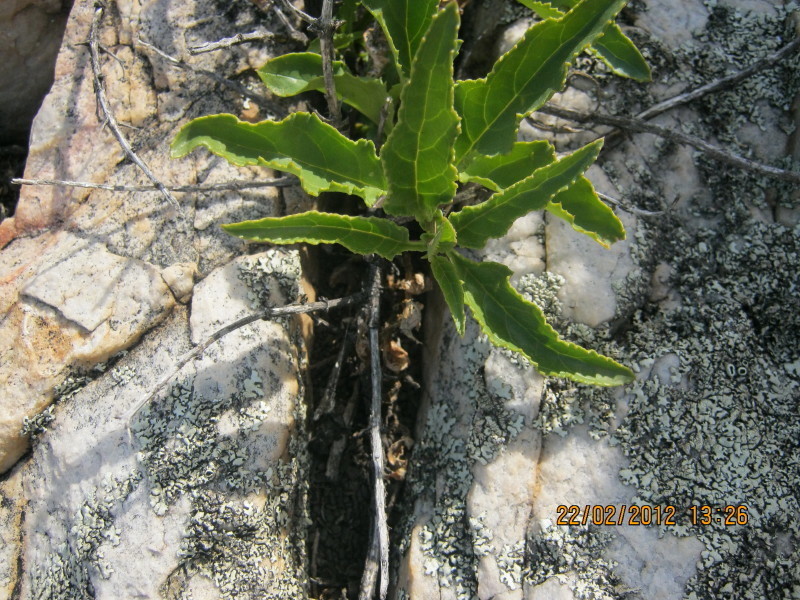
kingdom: Plantae
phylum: Tracheophyta
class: Magnoliopsida
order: Lamiales
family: Scrophulariaceae
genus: Teedia
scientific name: Teedia lucida
